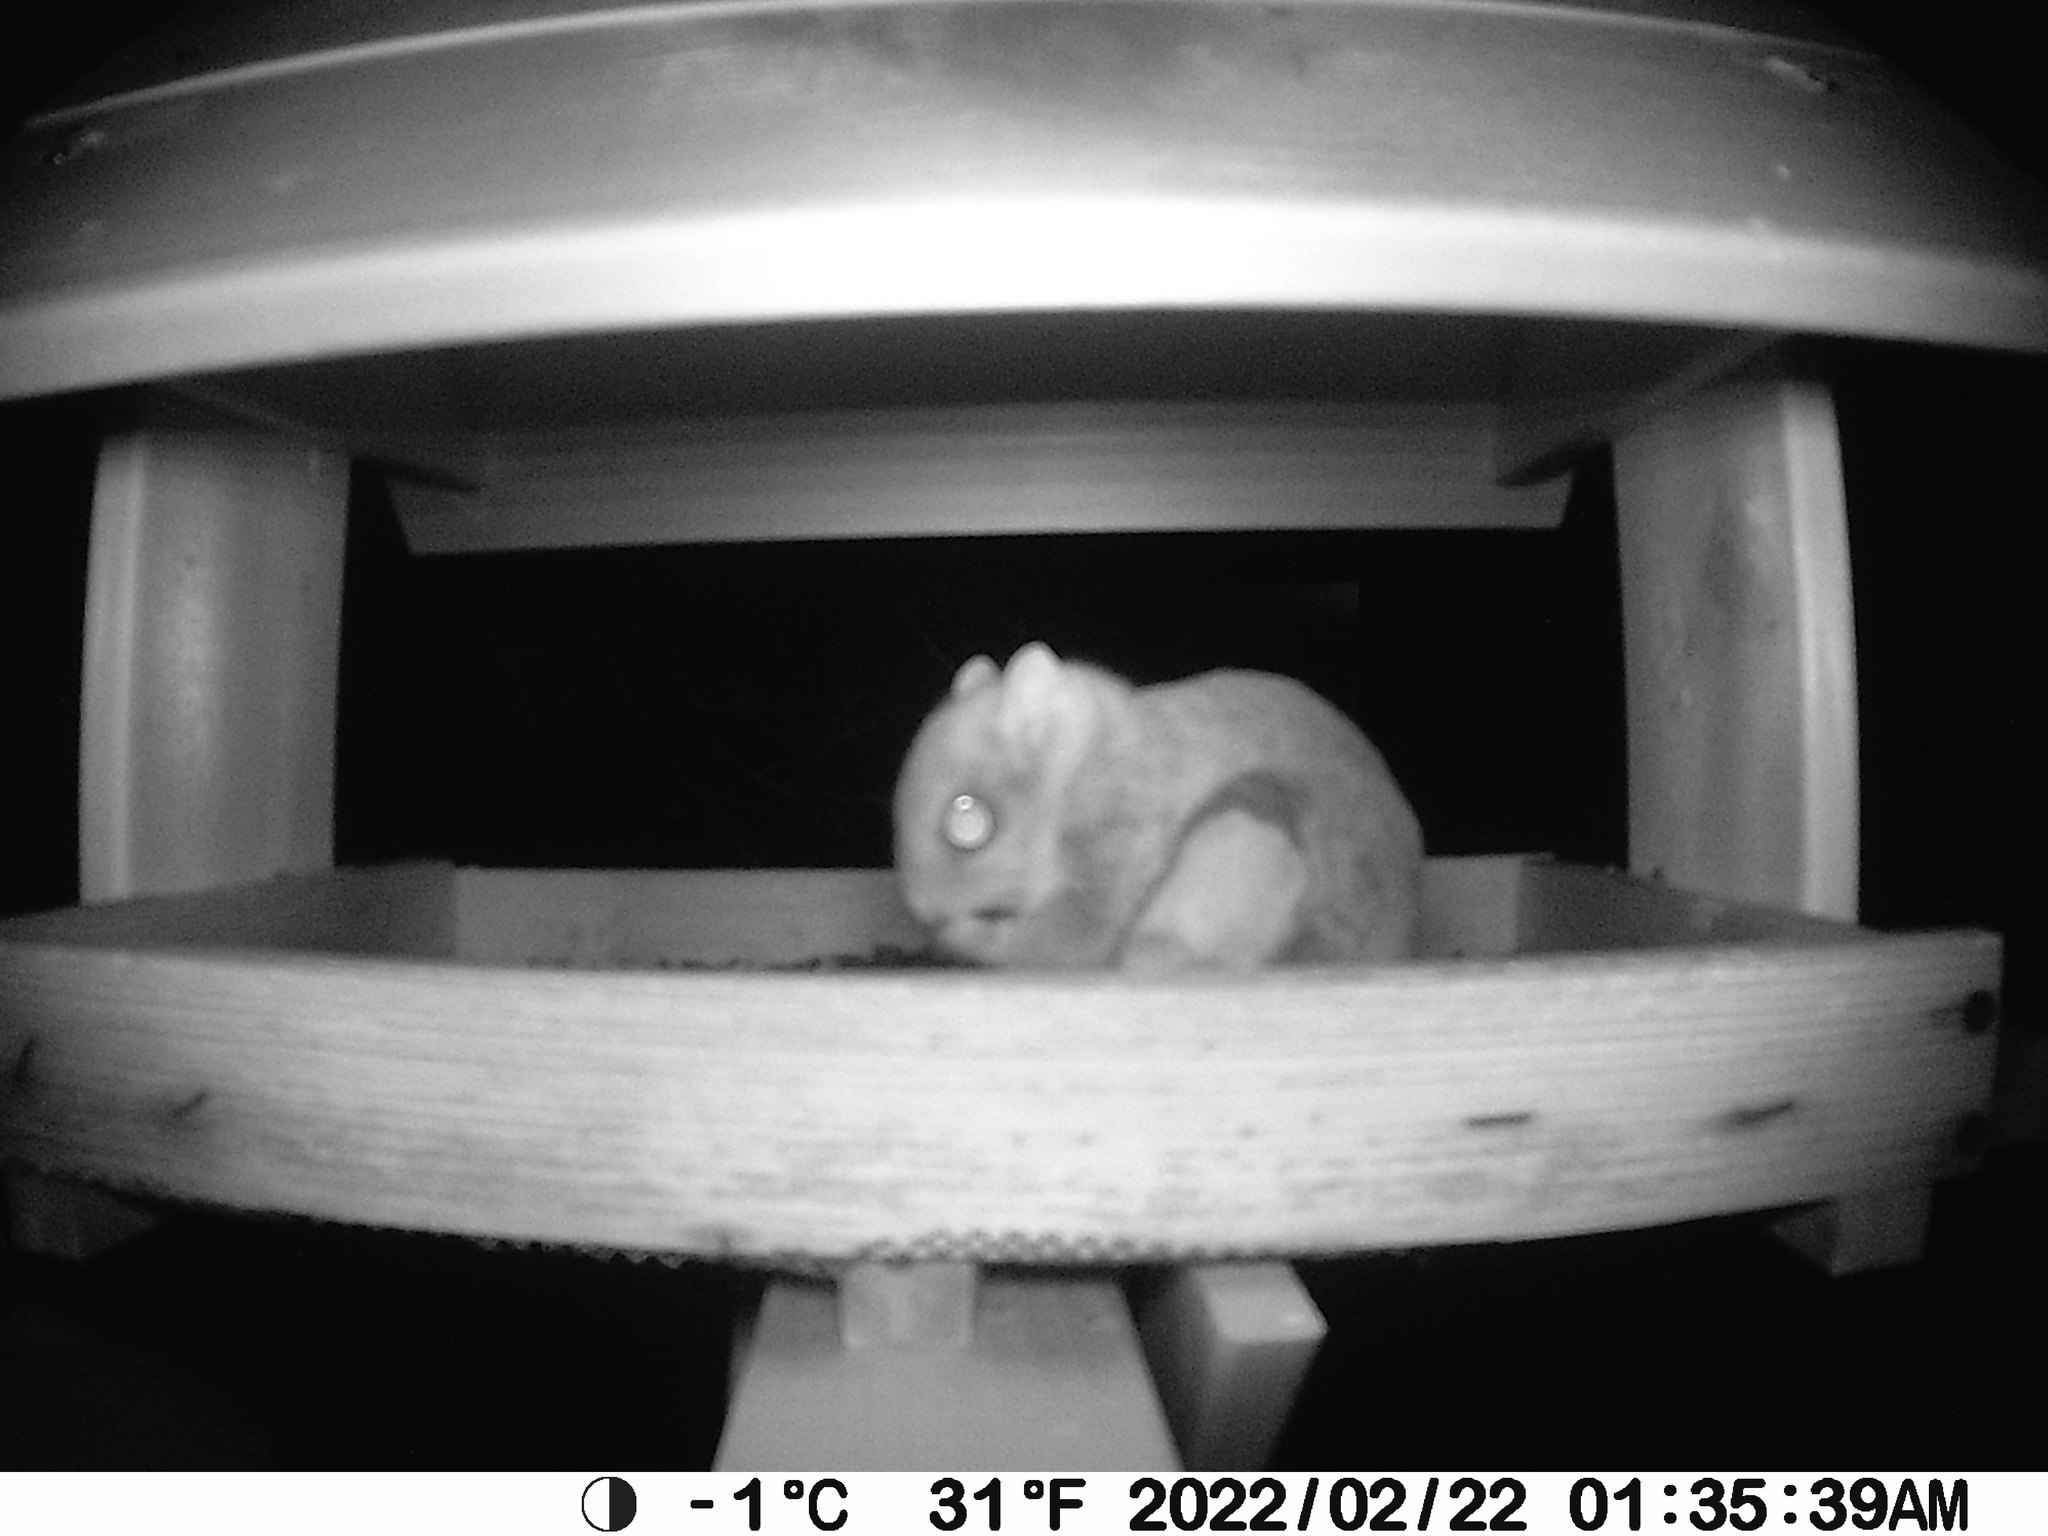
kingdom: Animalia
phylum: Chordata
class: Mammalia
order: Rodentia
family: Sciuridae
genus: Glaucomys
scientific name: Glaucomys sabrinus
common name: Northern flying squirrel
